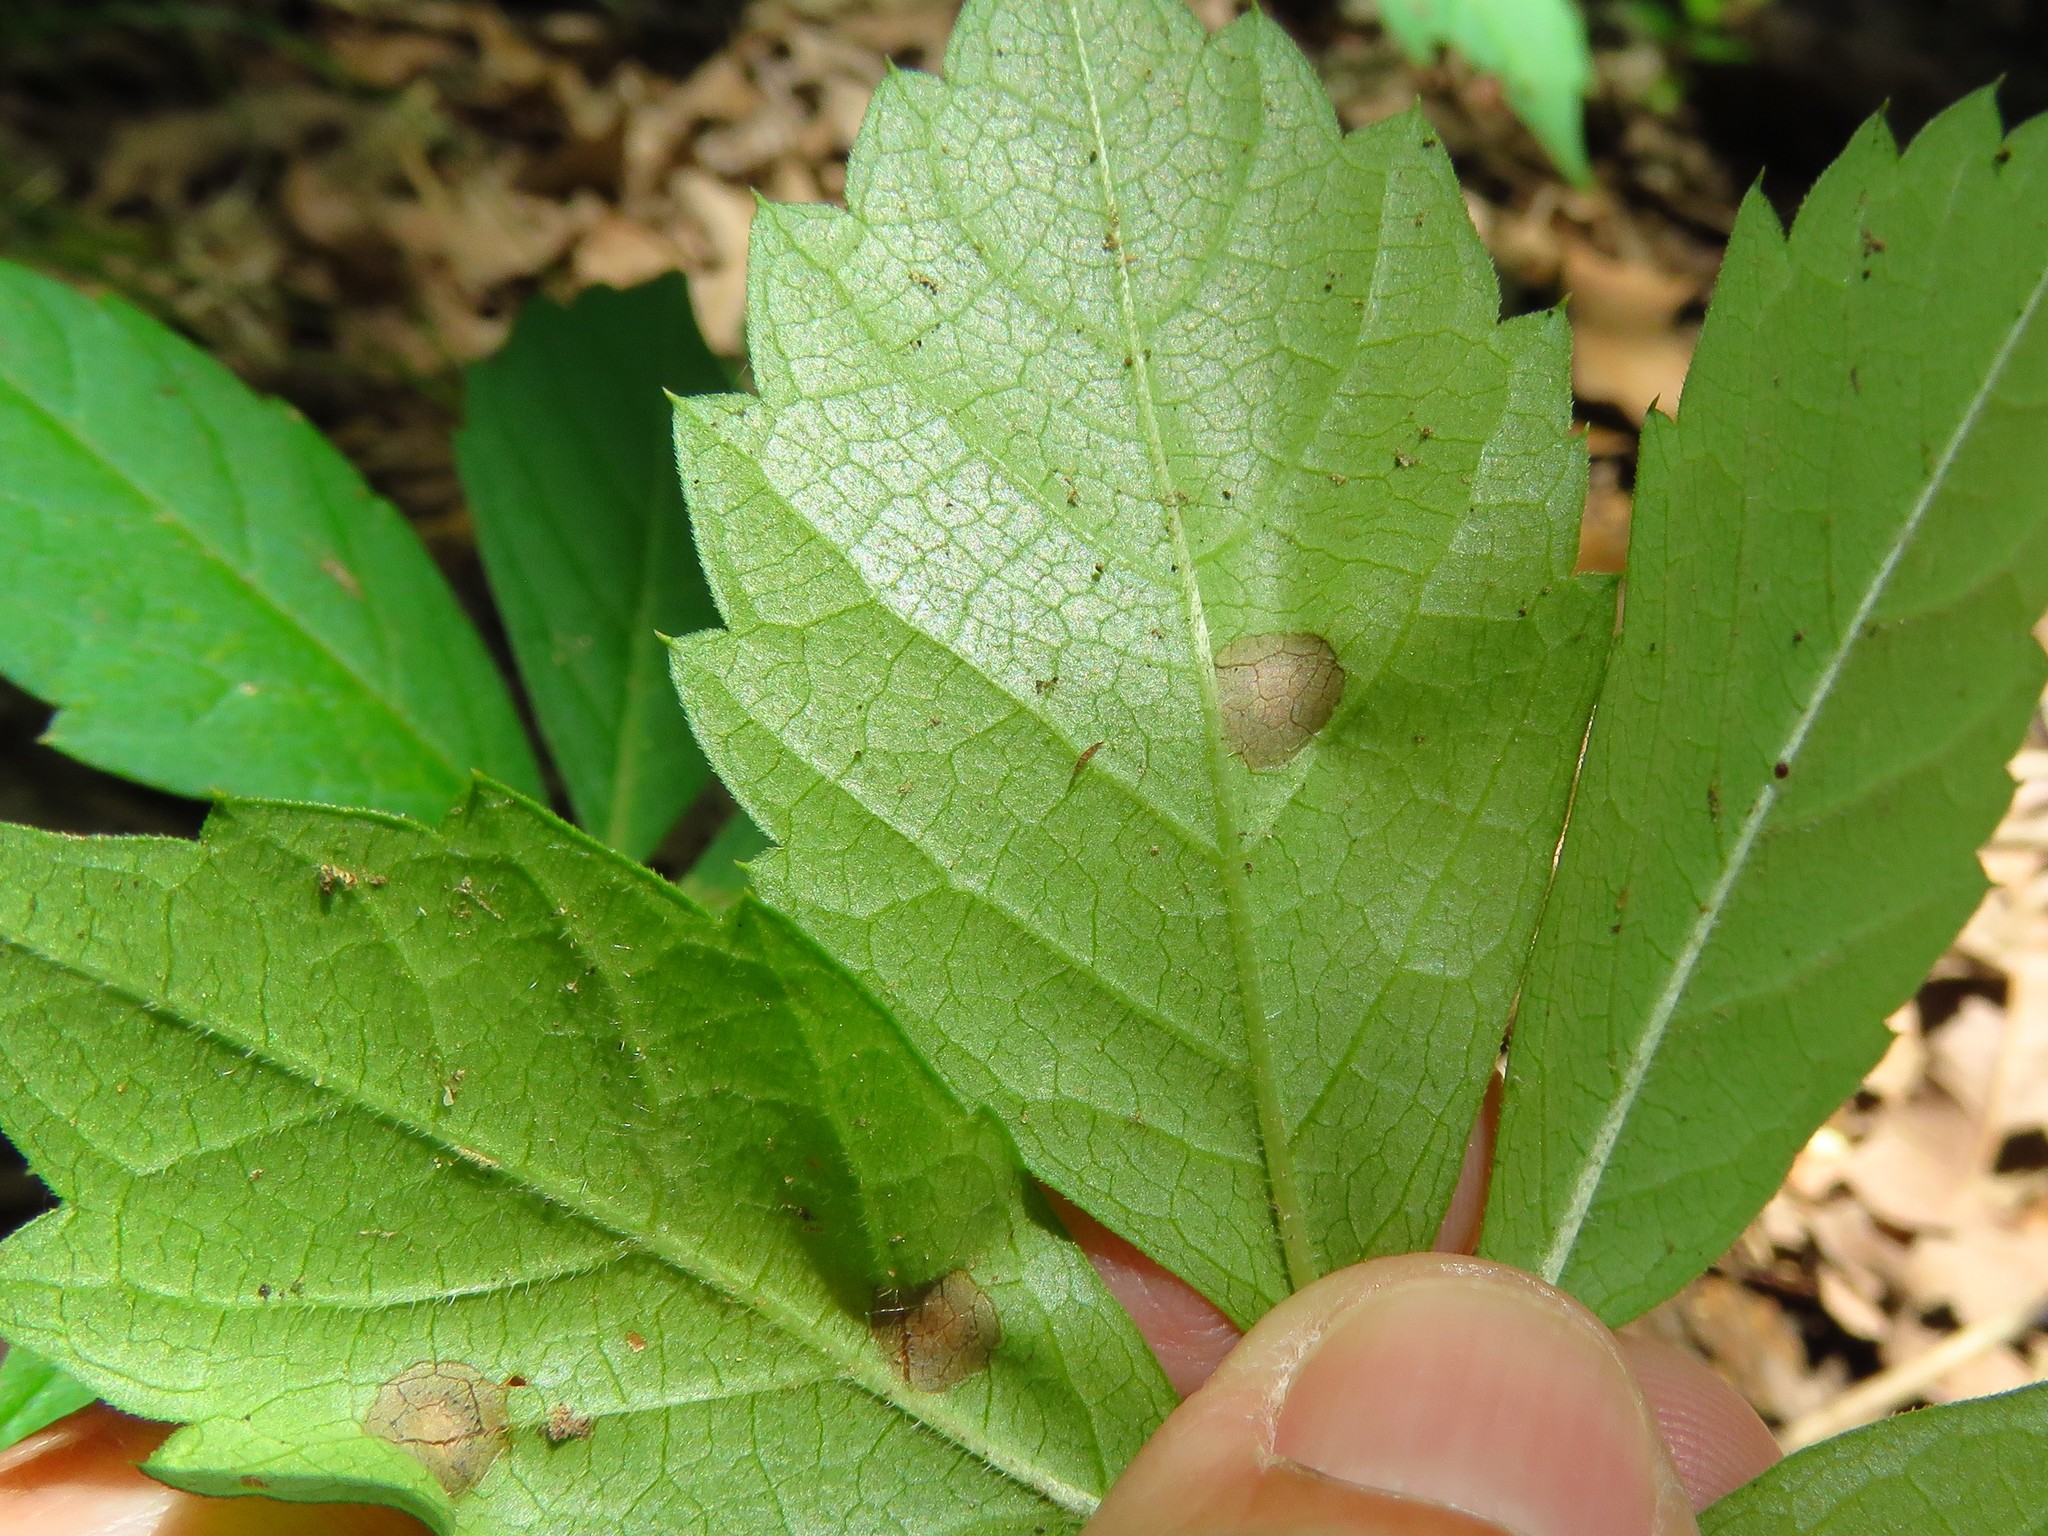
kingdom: Fungi
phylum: Ascomycota
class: Dothideomycetes
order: Botryosphaeriales
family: Phyllostictaceae
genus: Phyllosticta
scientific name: Phyllosticta parthenocissi
